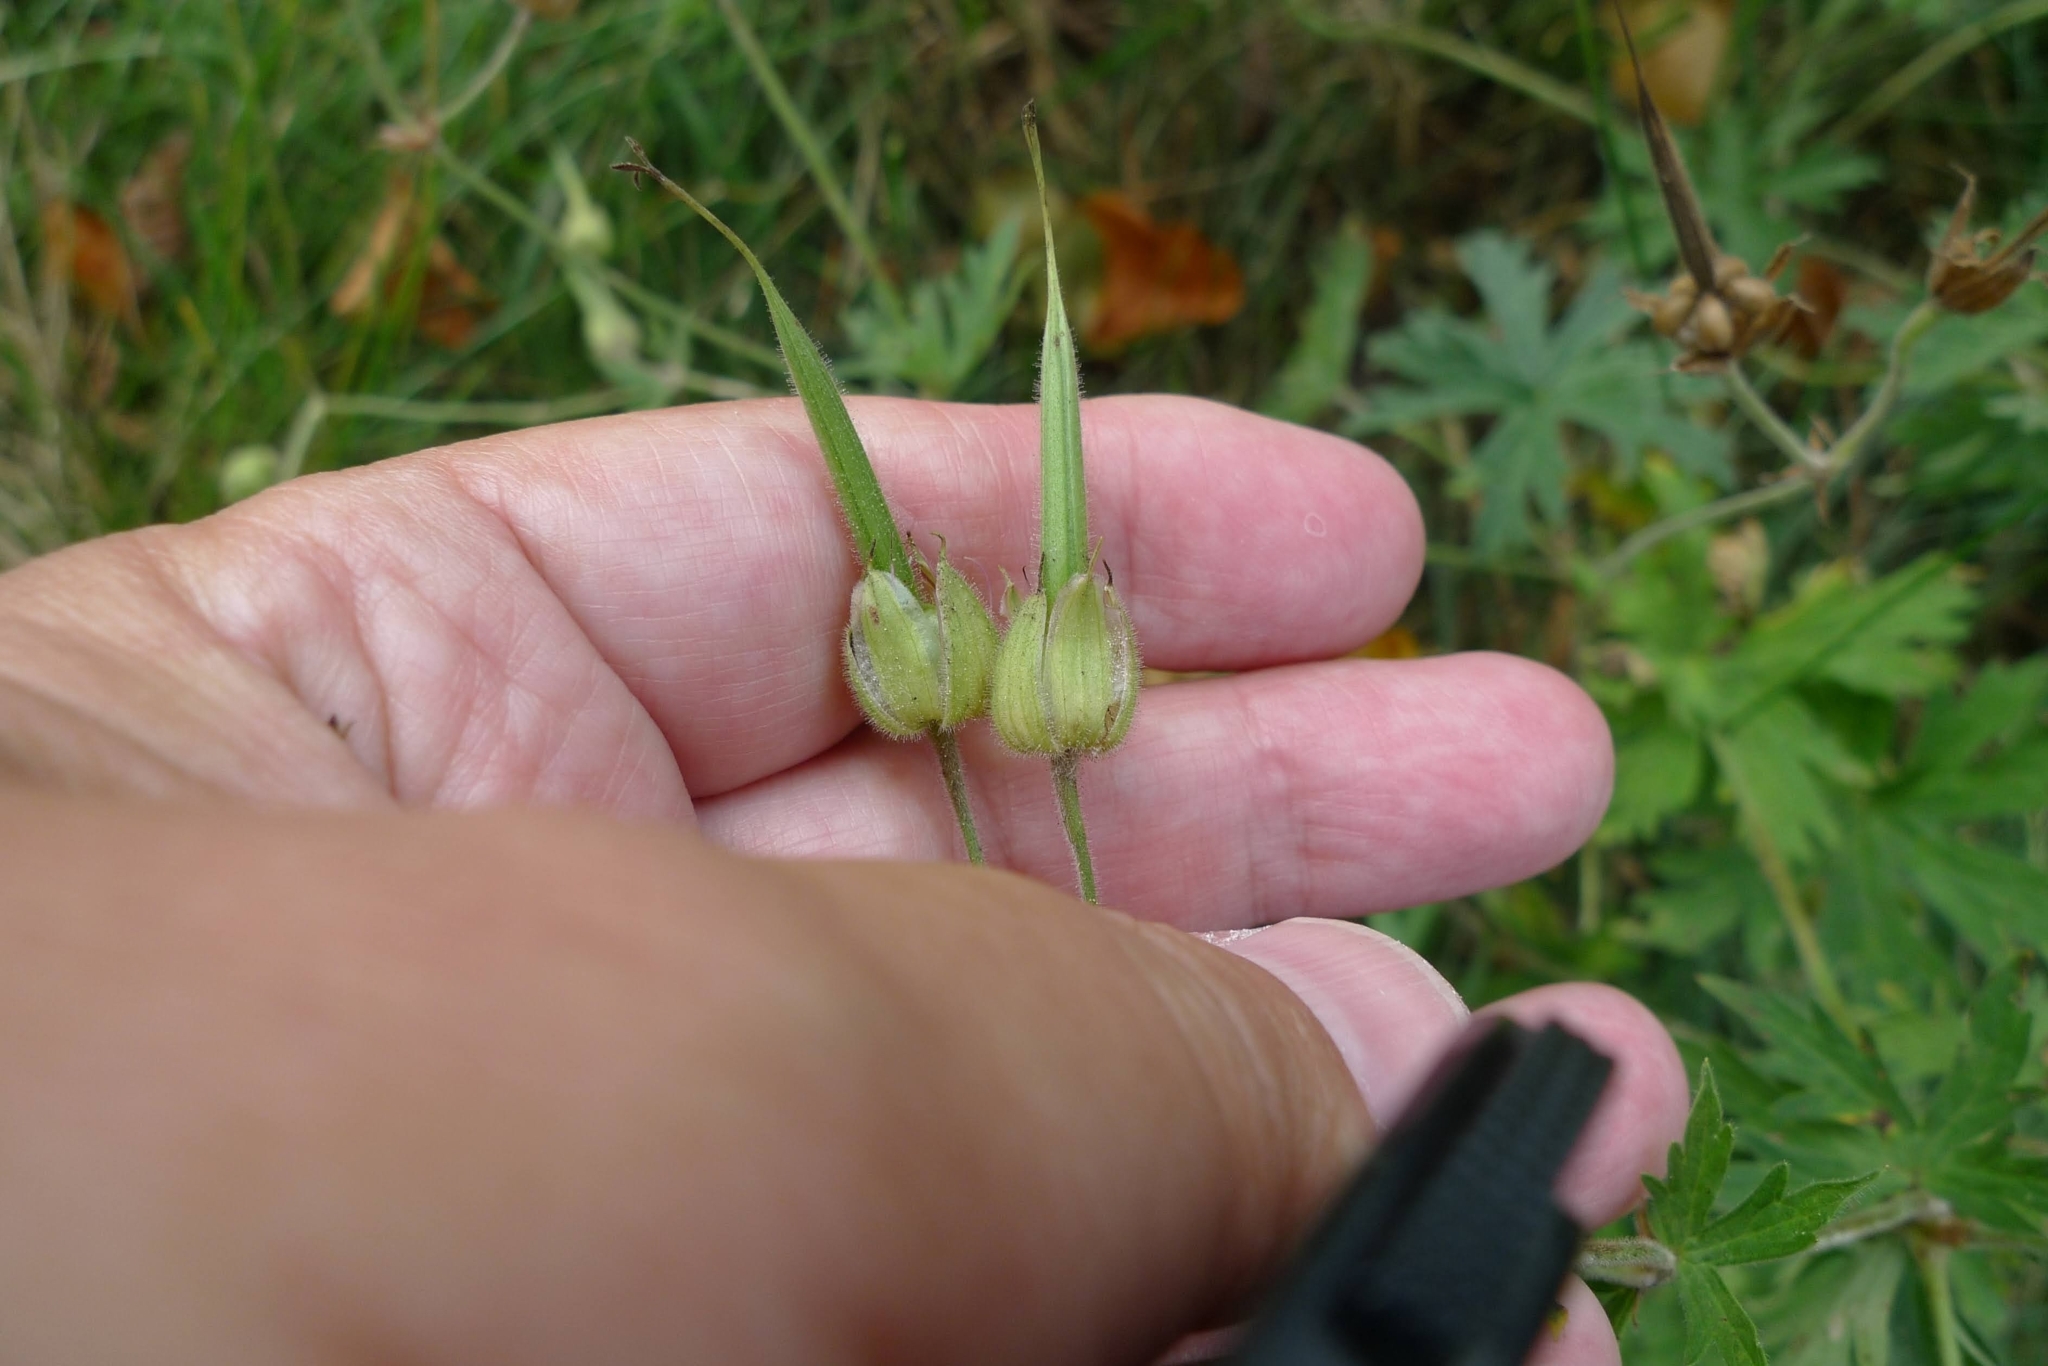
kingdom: Plantae
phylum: Tracheophyta
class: Magnoliopsida
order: Geraniales
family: Geraniaceae
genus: Geranium
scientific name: Geranium pratense
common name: Meadow crane's-bill
